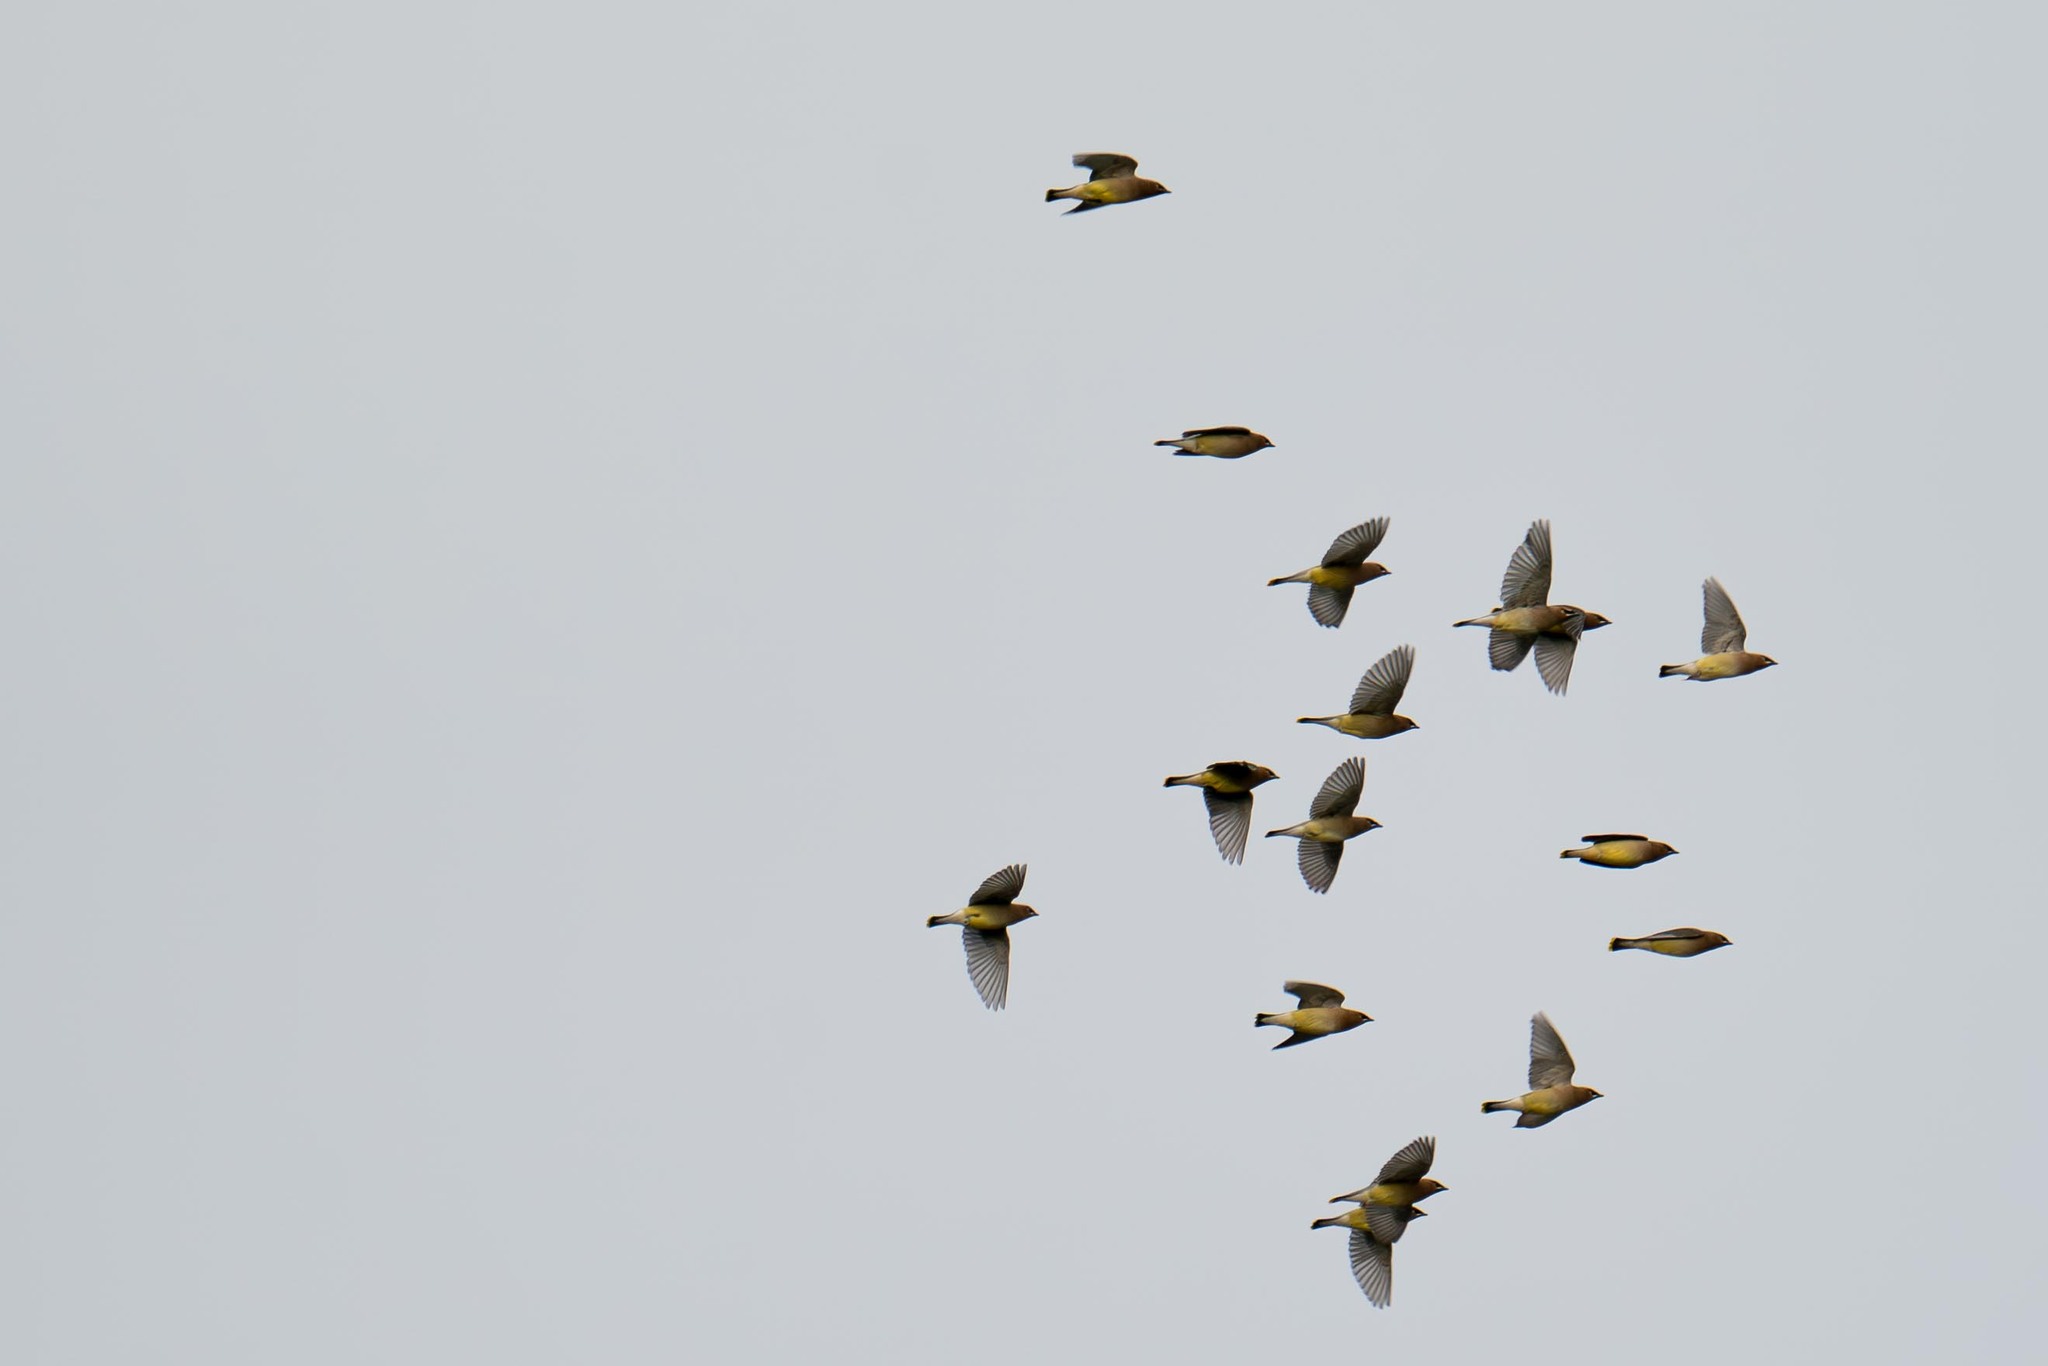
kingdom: Animalia
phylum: Chordata
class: Aves
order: Passeriformes
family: Bombycillidae
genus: Bombycilla
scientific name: Bombycilla cedrorum
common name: Cedar waxwing
